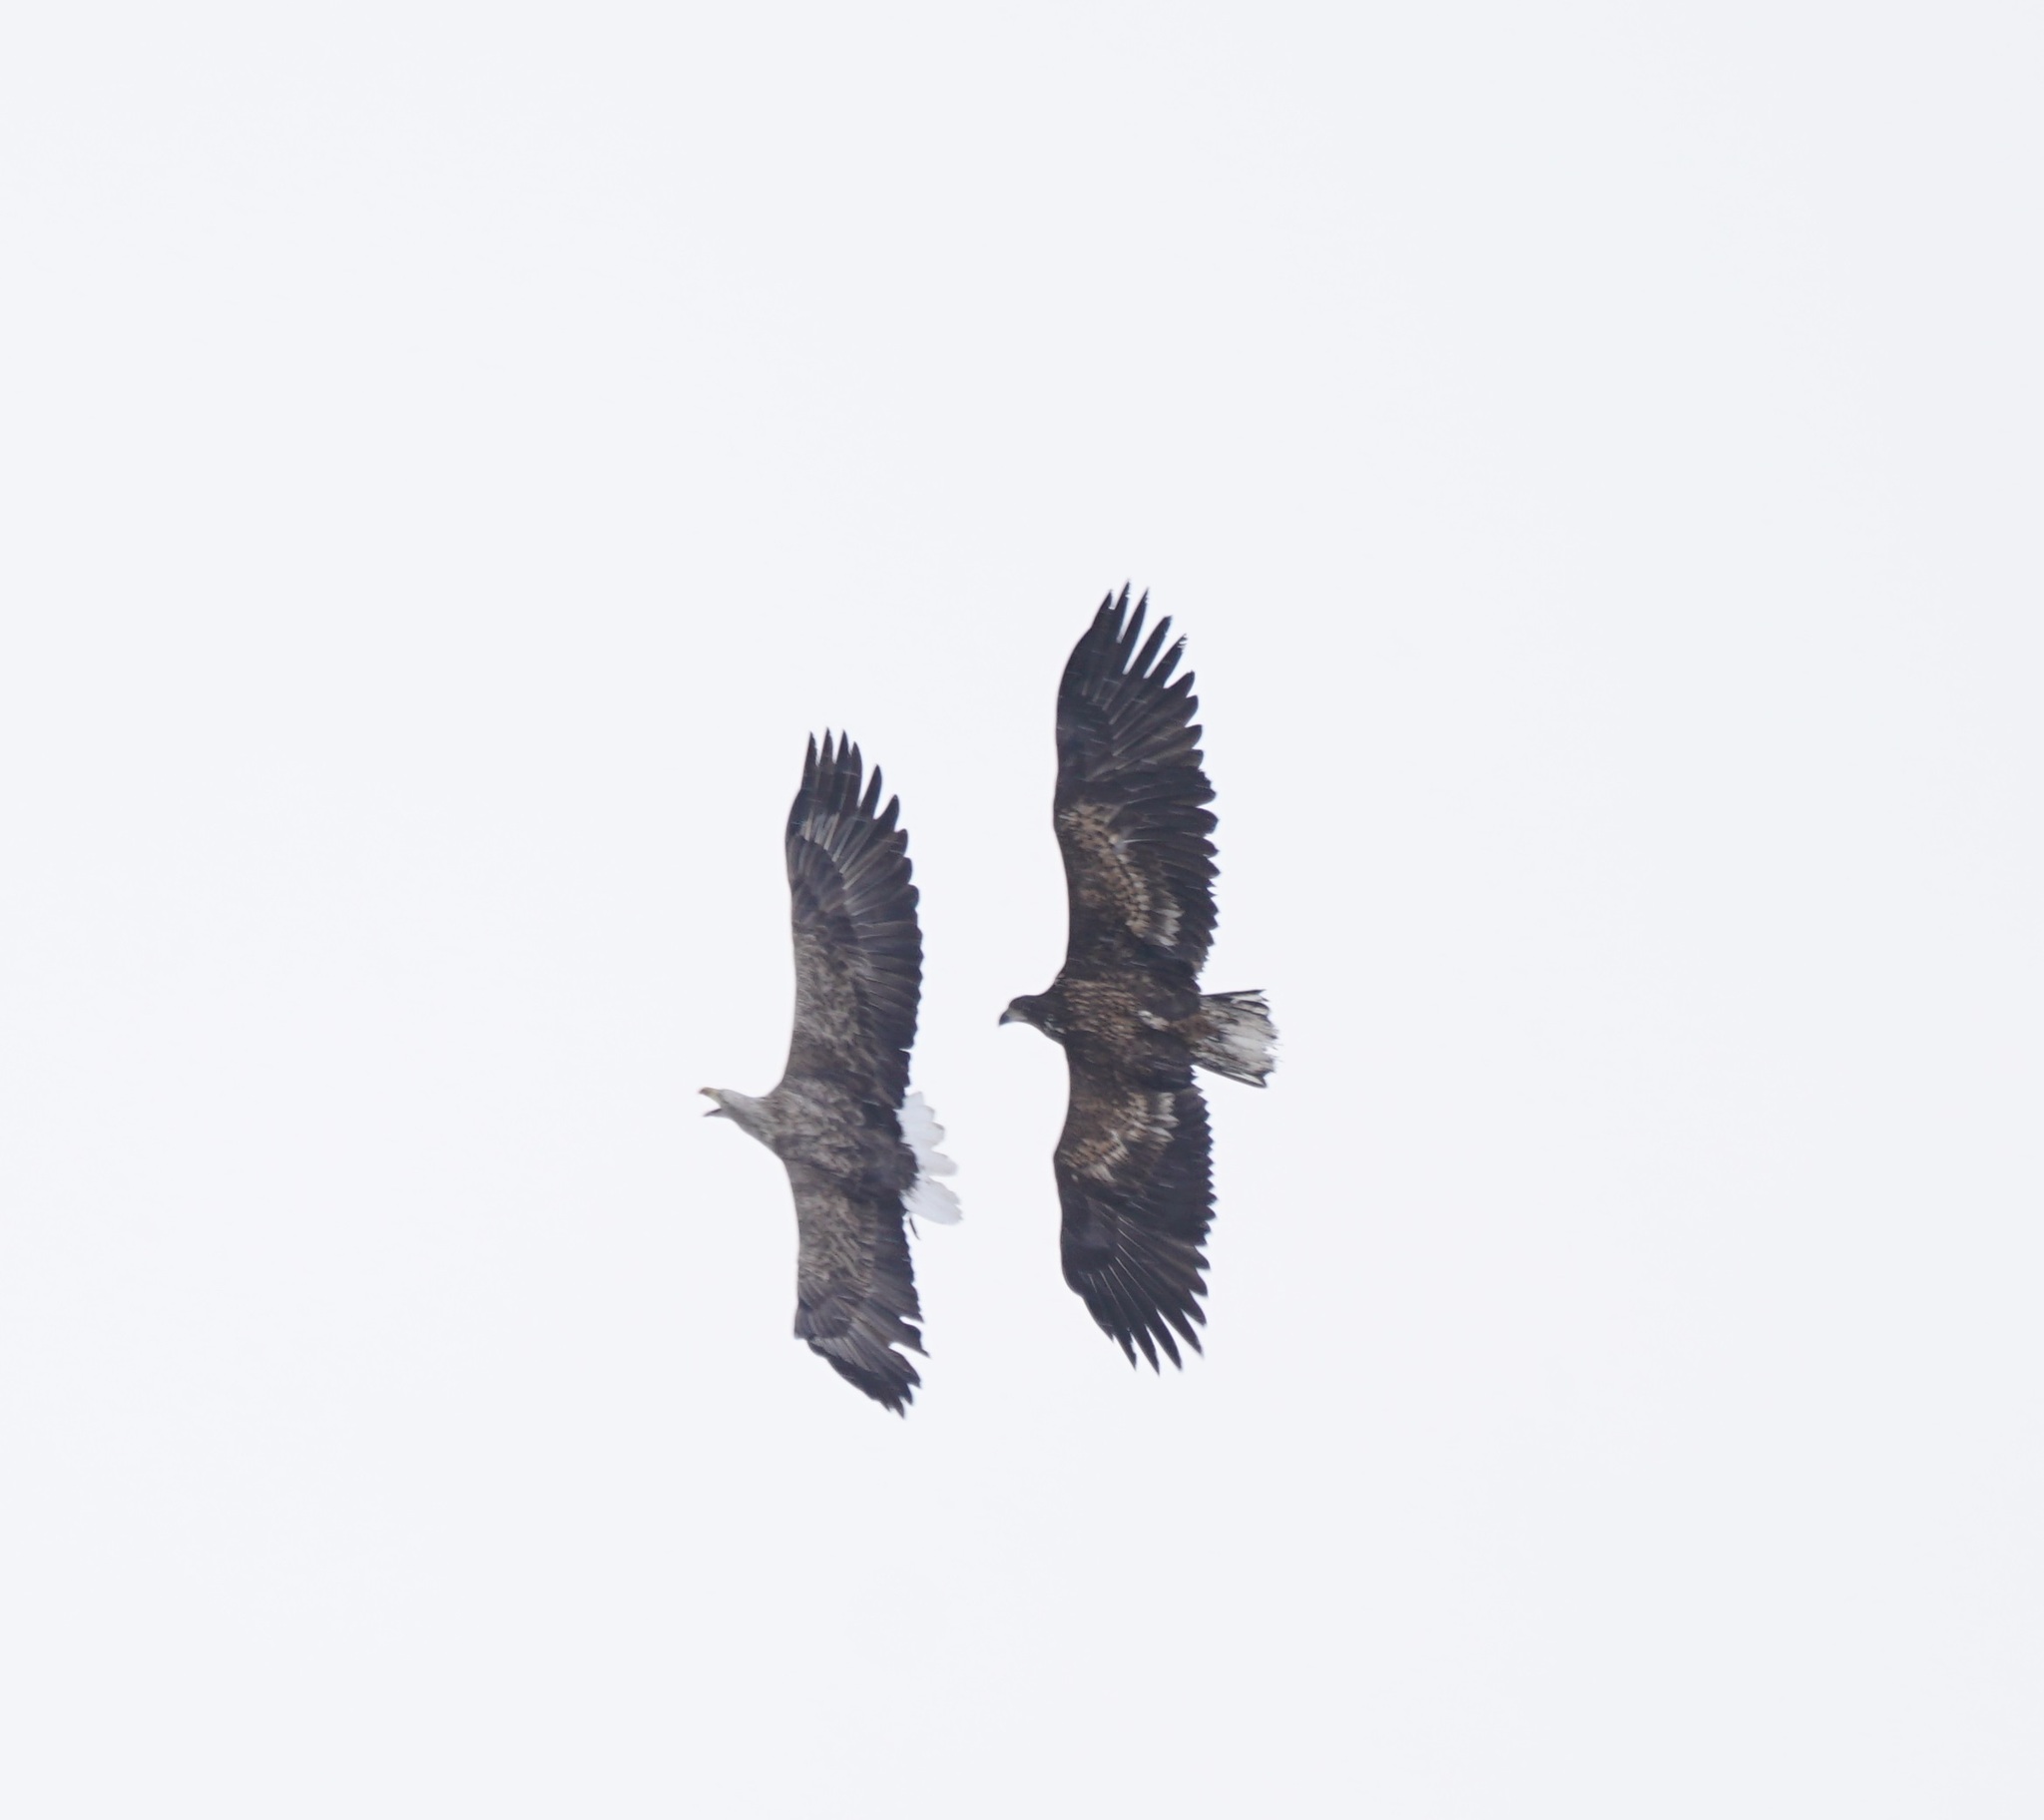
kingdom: Animalia
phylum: Chordata
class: Aves
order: Accipitriformes
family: Accipitridae
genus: Haliaeetus
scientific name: Haliaeetus albicilla
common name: White-tailed eagle
